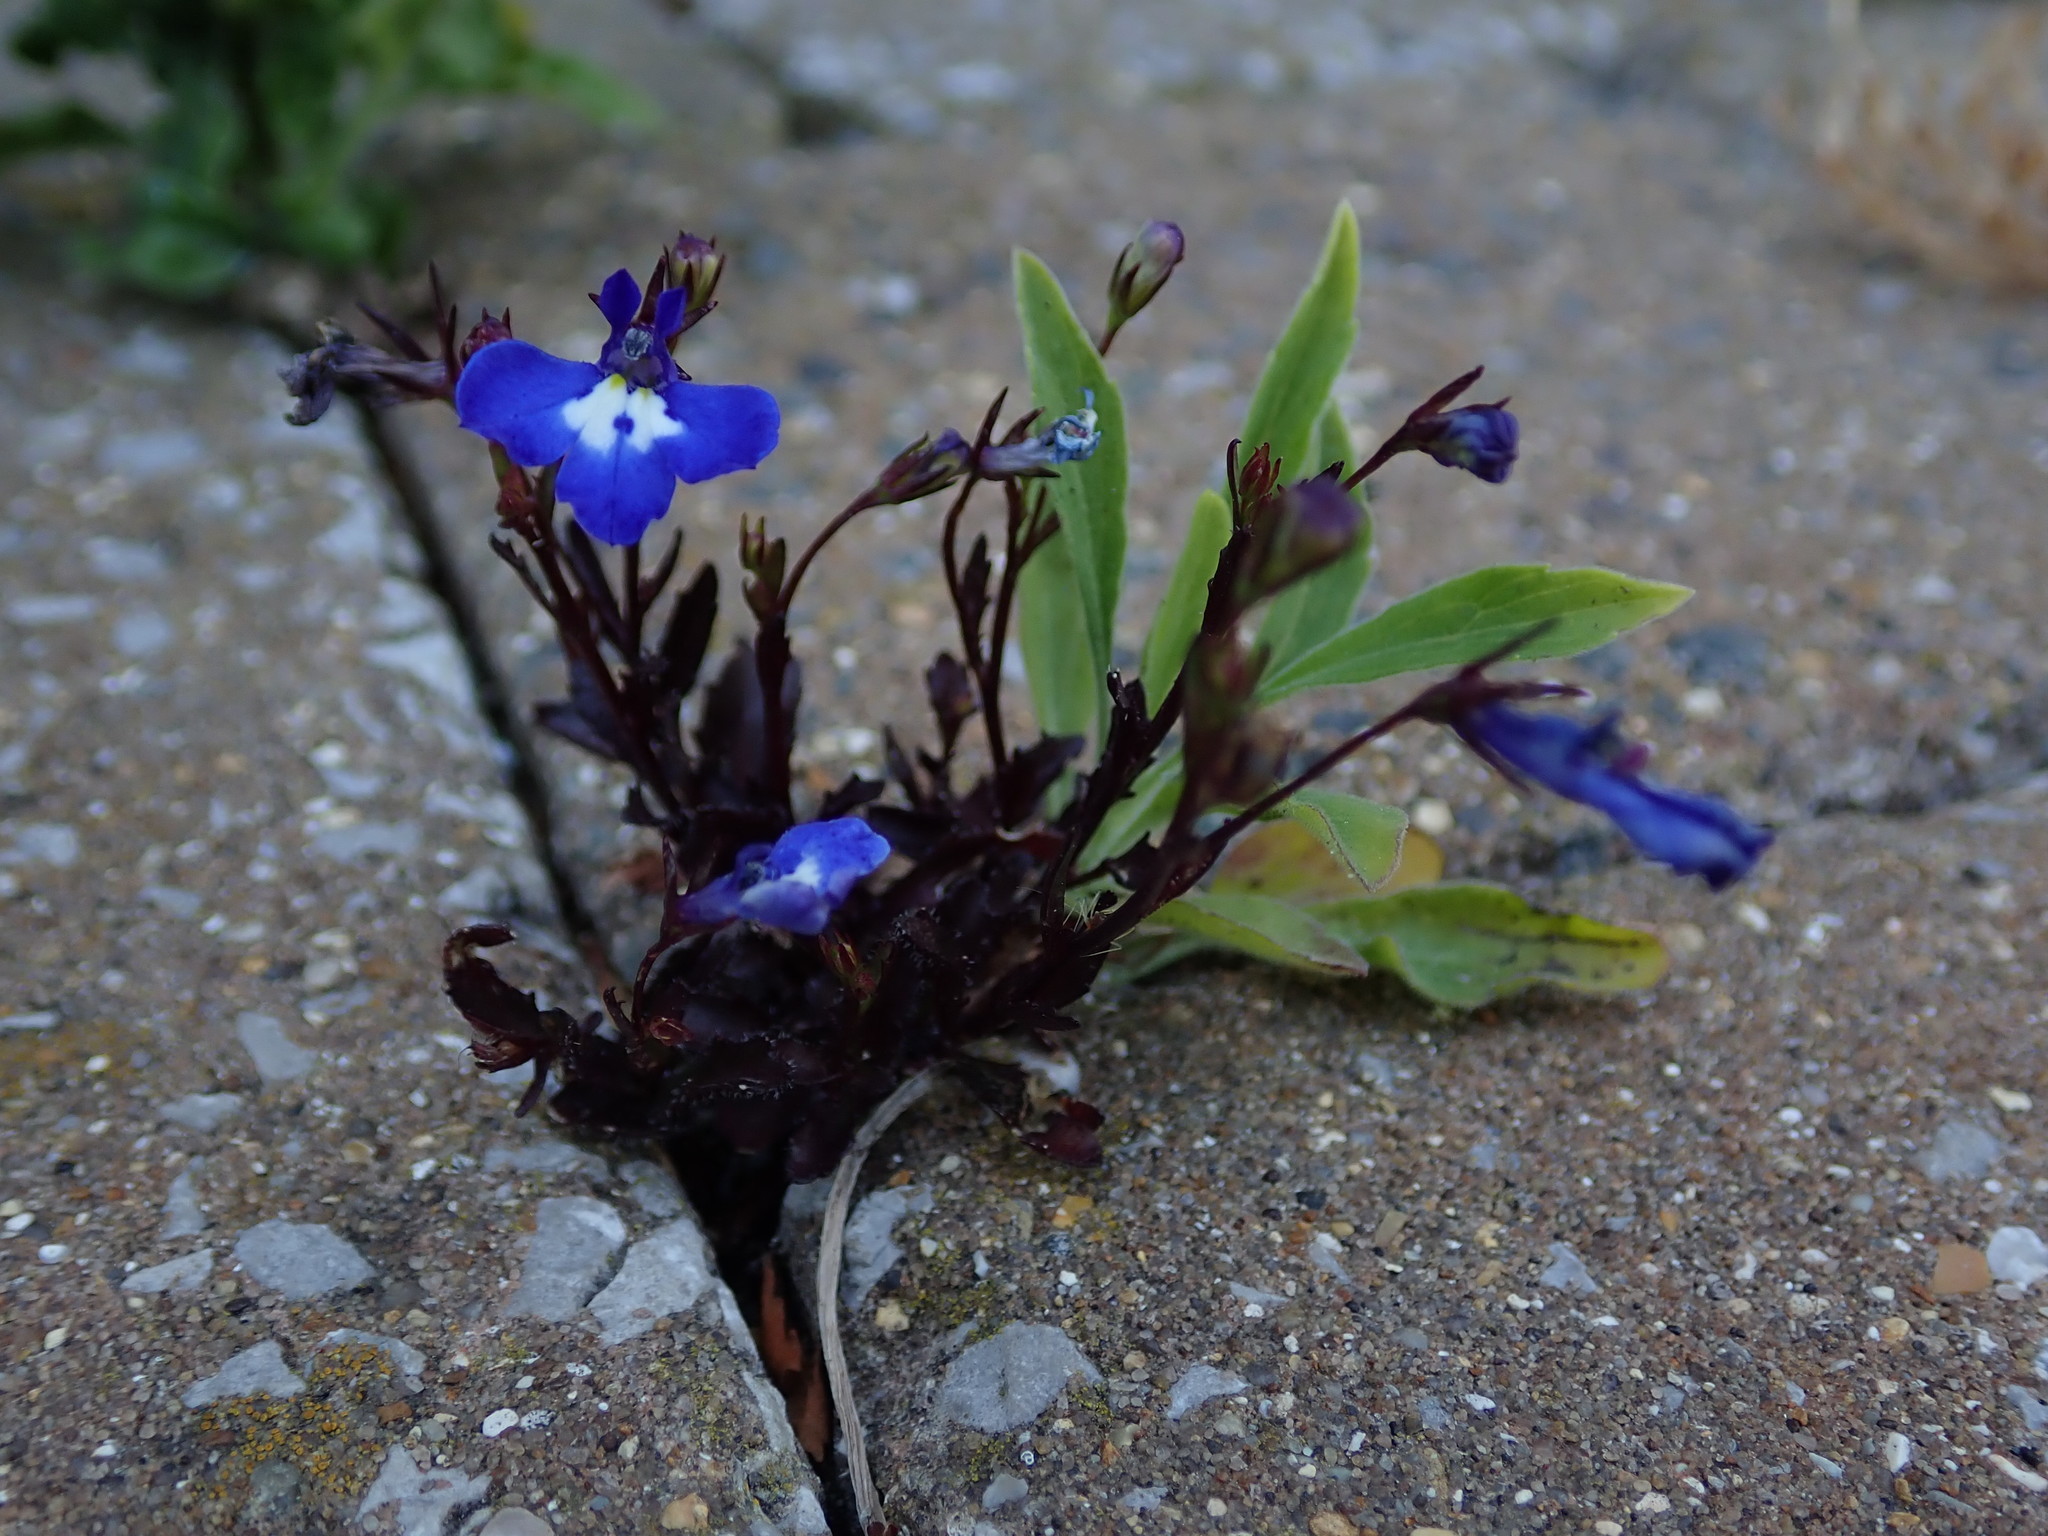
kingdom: Plantae
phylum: Tracheophyta
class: Magnoliopsida
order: Asterales
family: Campanulaceae
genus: Lobelia
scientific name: Lobelia erinus
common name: Edging lobelia
